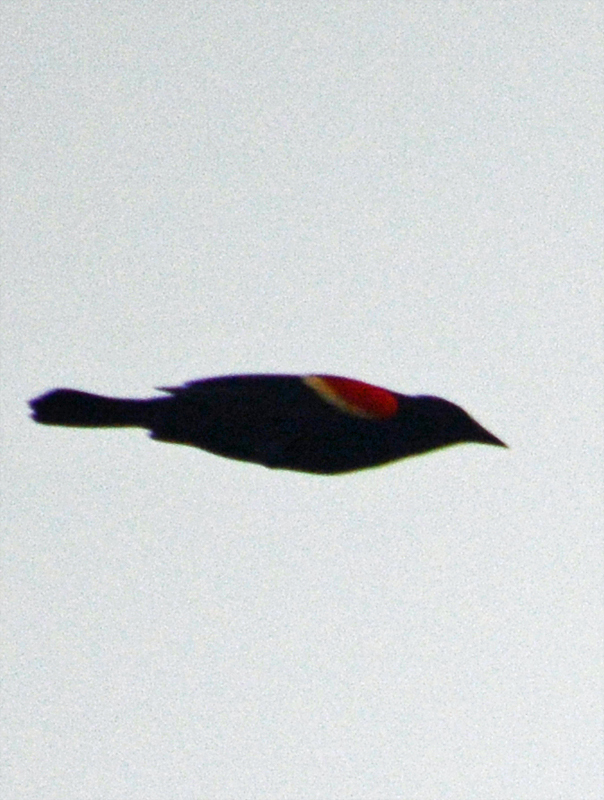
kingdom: Animalia
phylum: Chordata
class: Aves
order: Passeriformes
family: Icteridae
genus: Agelaius
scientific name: Agelaius phoeniceus
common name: Red-winged blackbird
